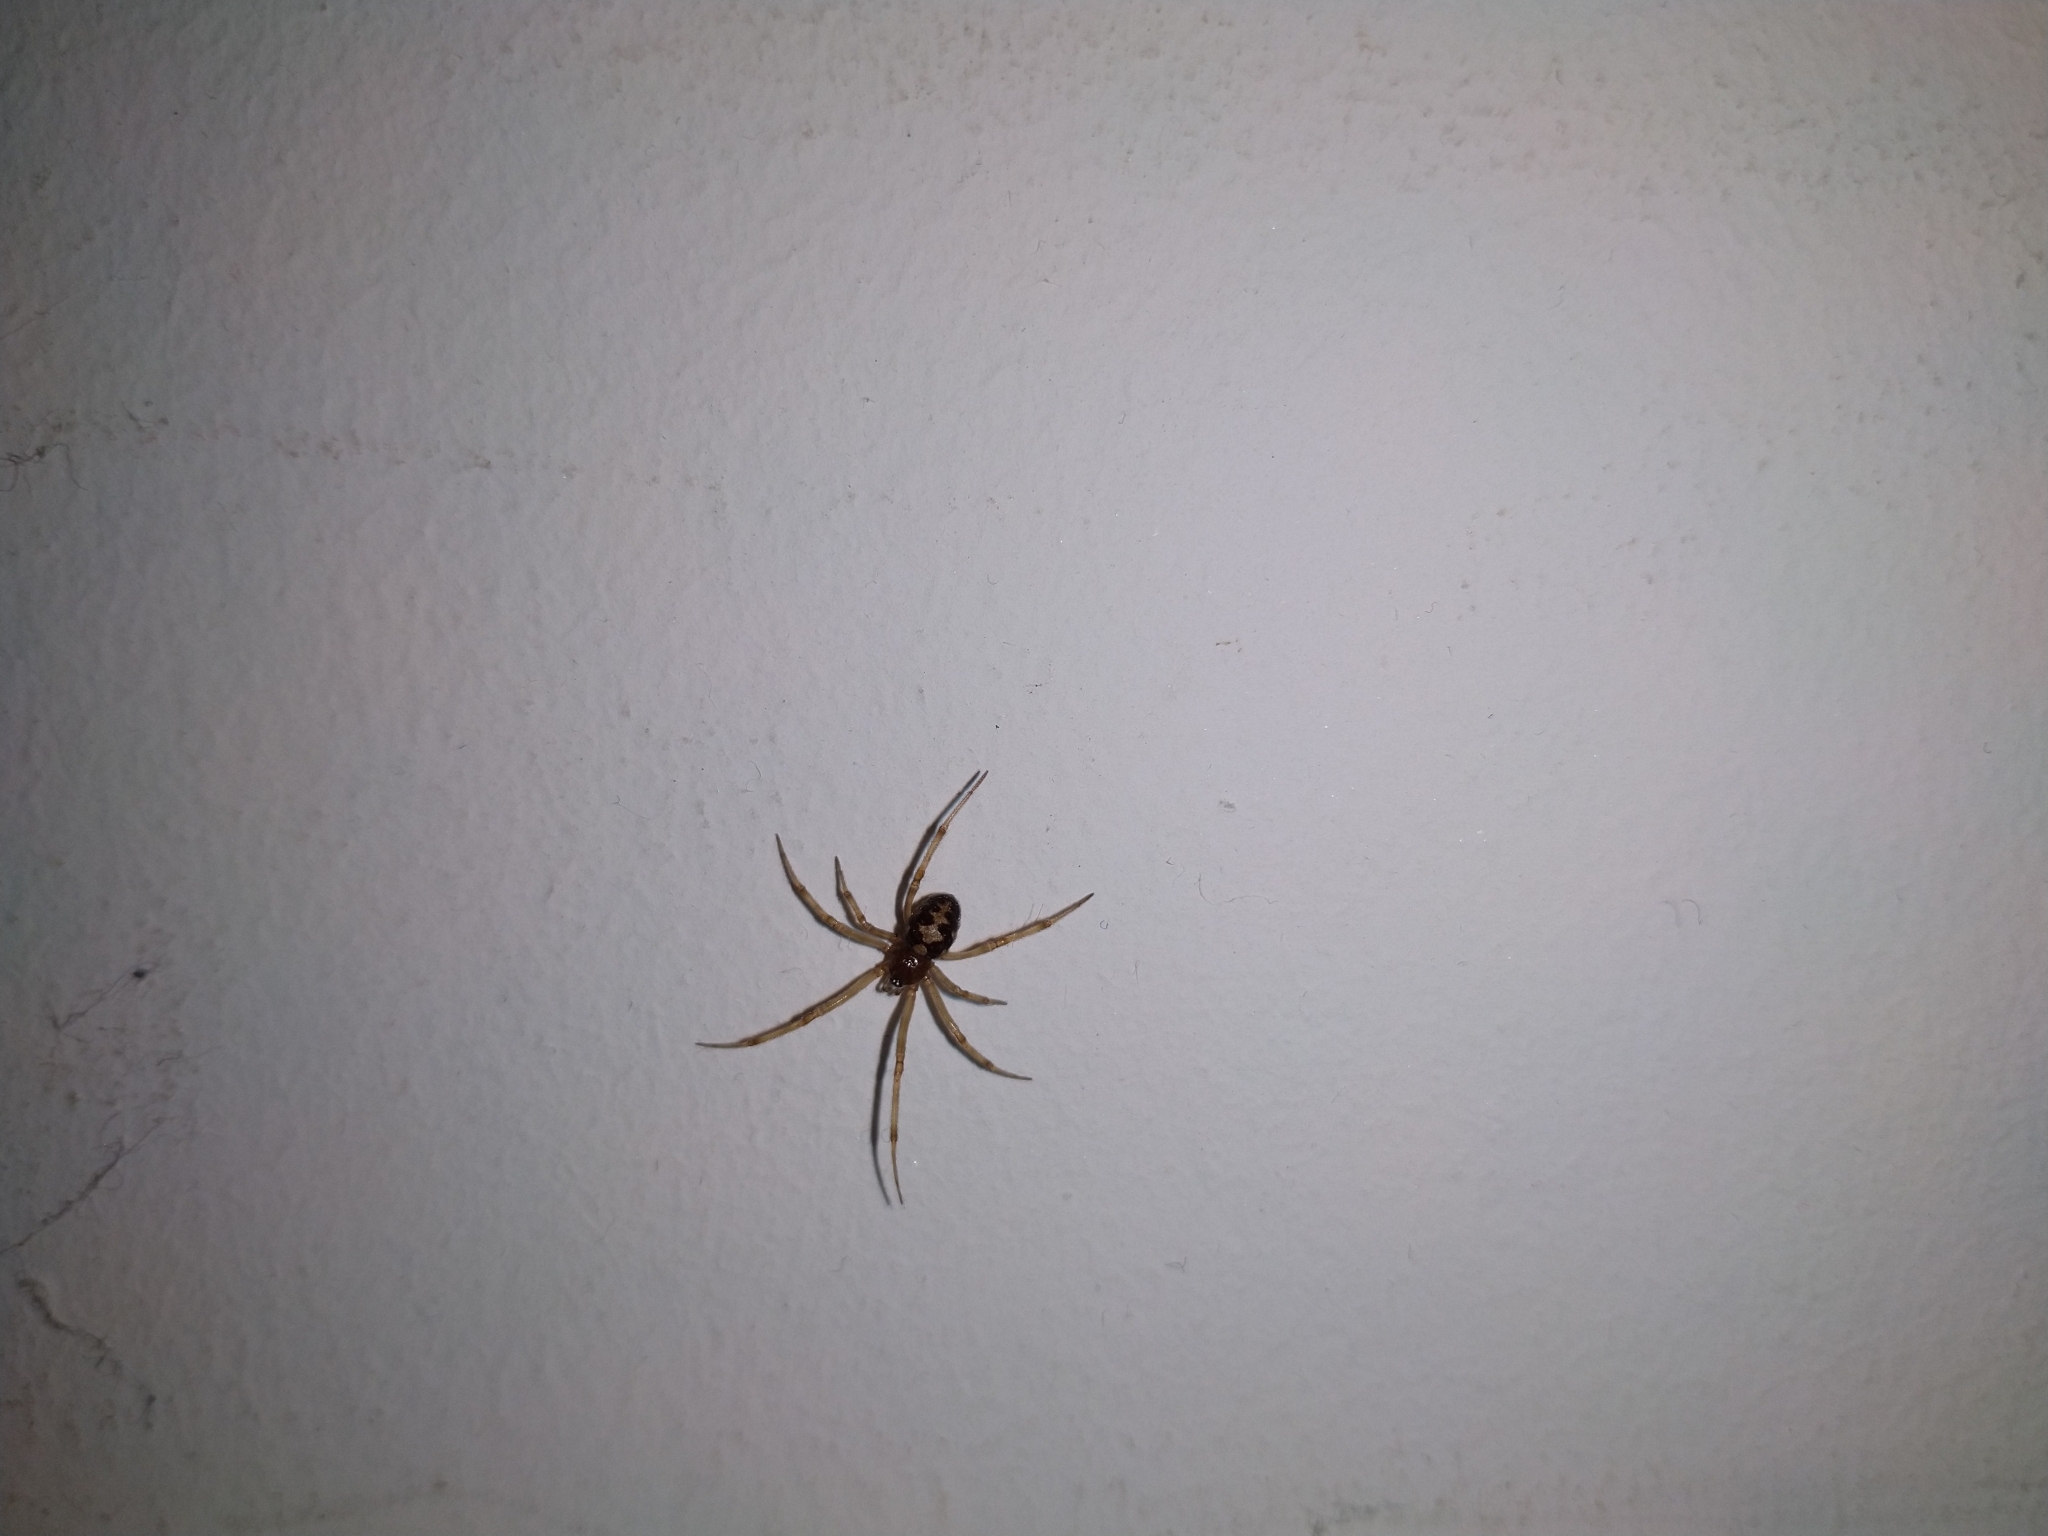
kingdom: Animalia
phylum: Arthropoda
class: Arachnida
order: Araneae
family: Theridiidae
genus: Steatoda
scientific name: Steatoda triangulosa
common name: Triangulate bud spider
